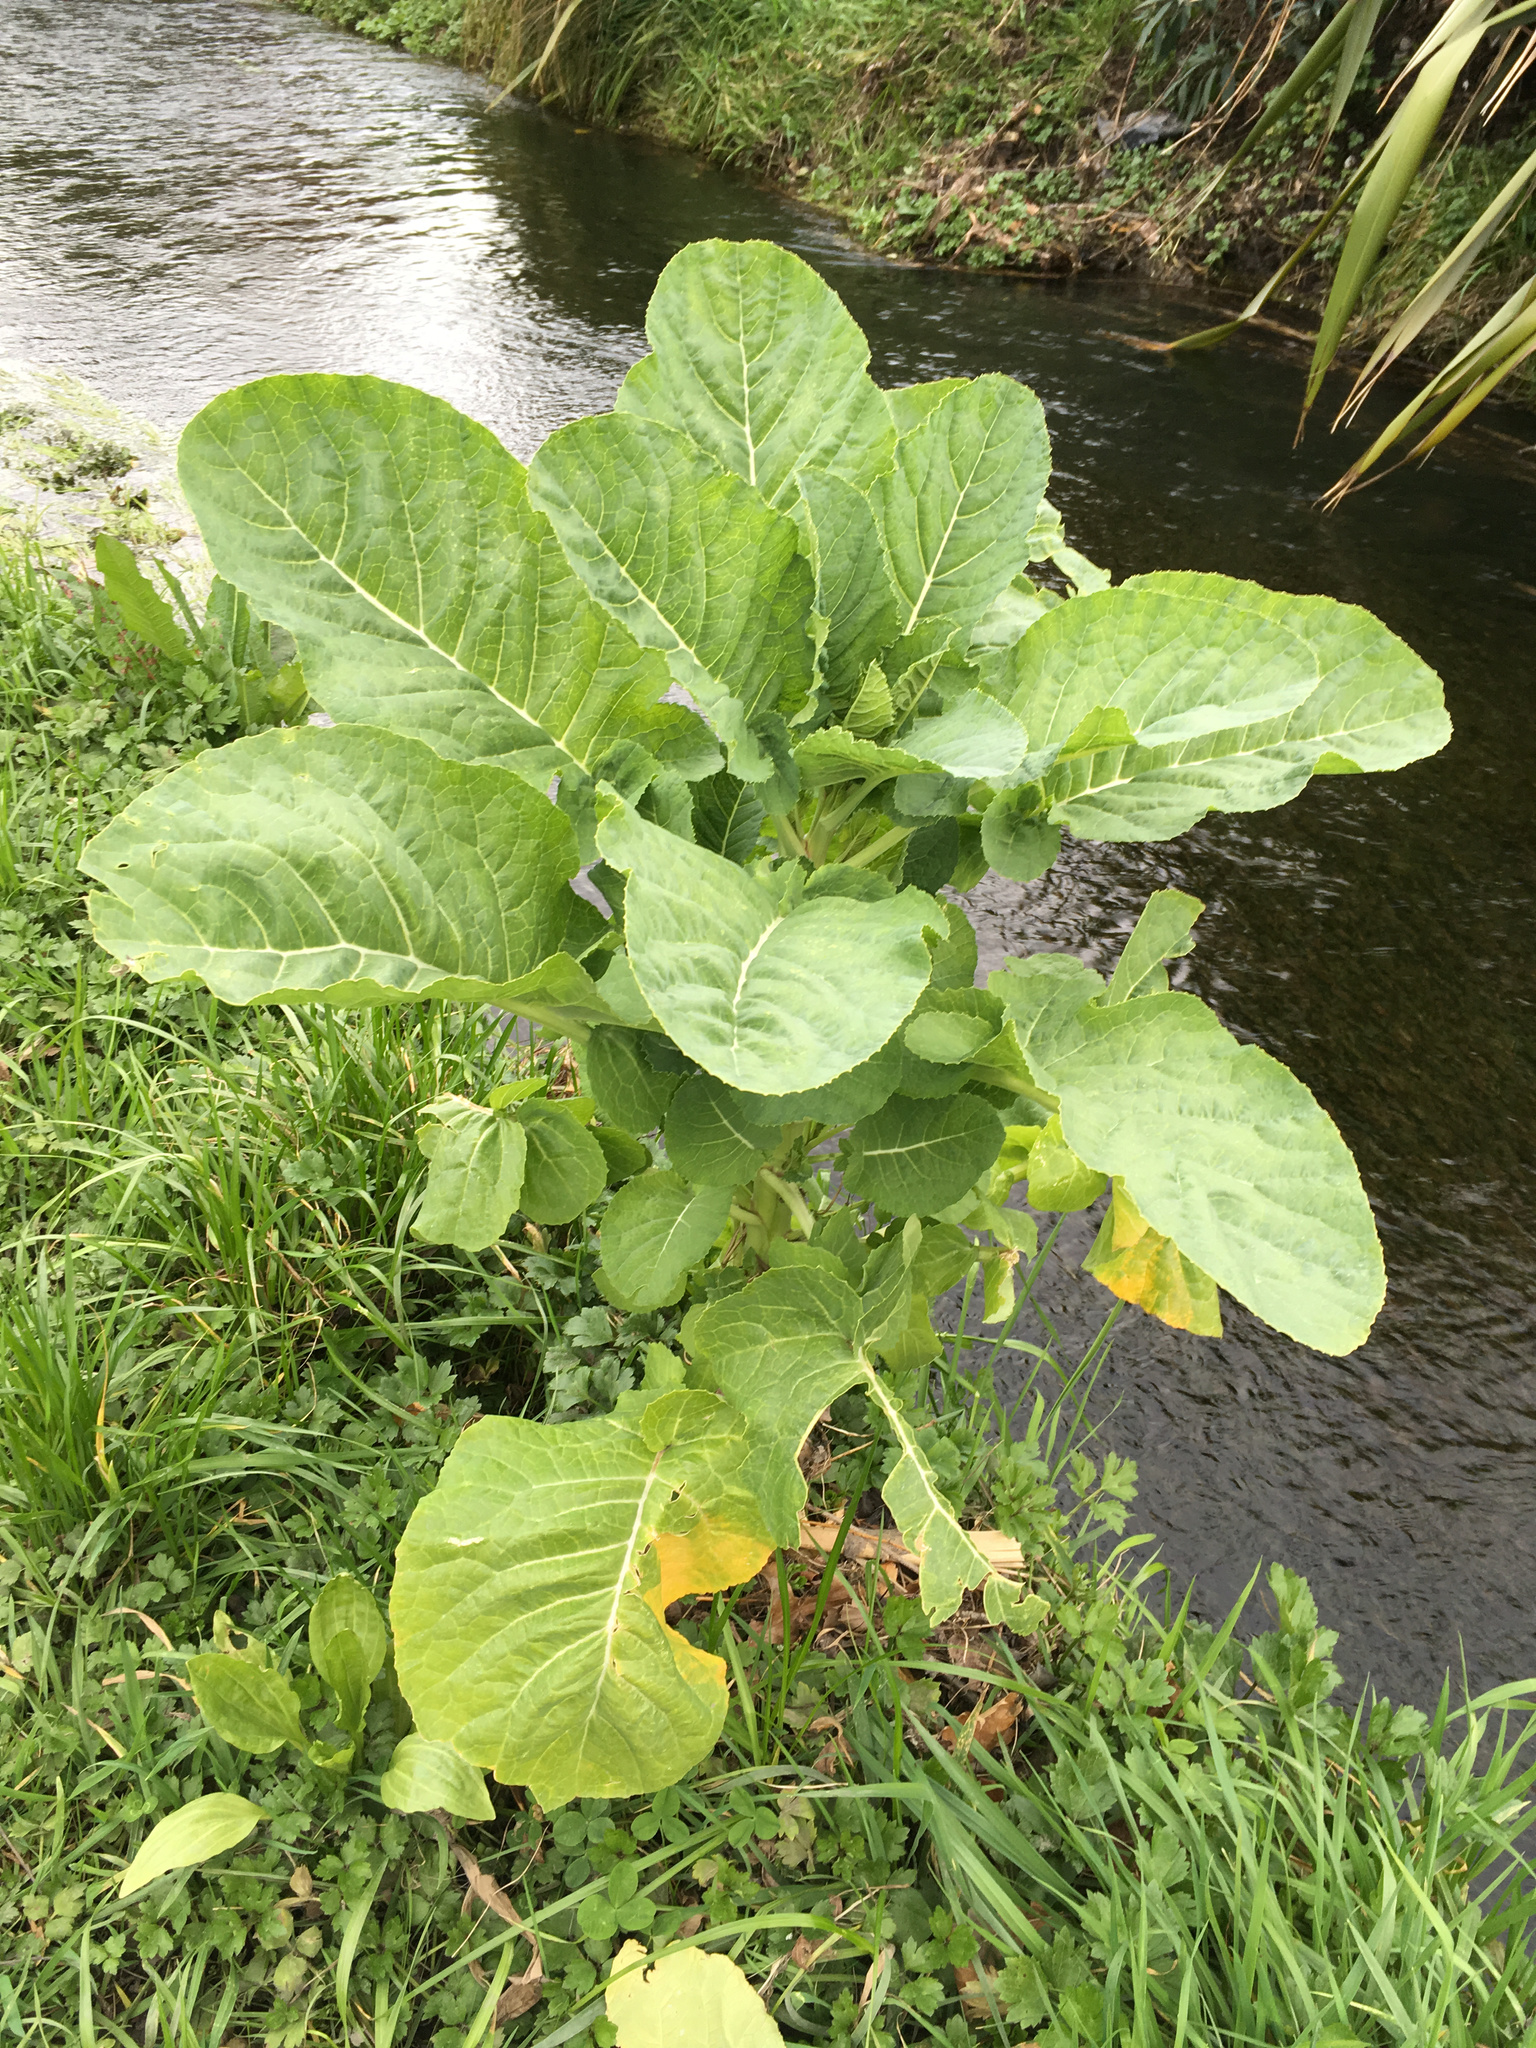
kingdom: Plantae
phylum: Tracheophyta
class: Magnoliopsida
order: Brassicales
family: Brassicaceae
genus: Brassica
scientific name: Brassica oleracea
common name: Cabbage
